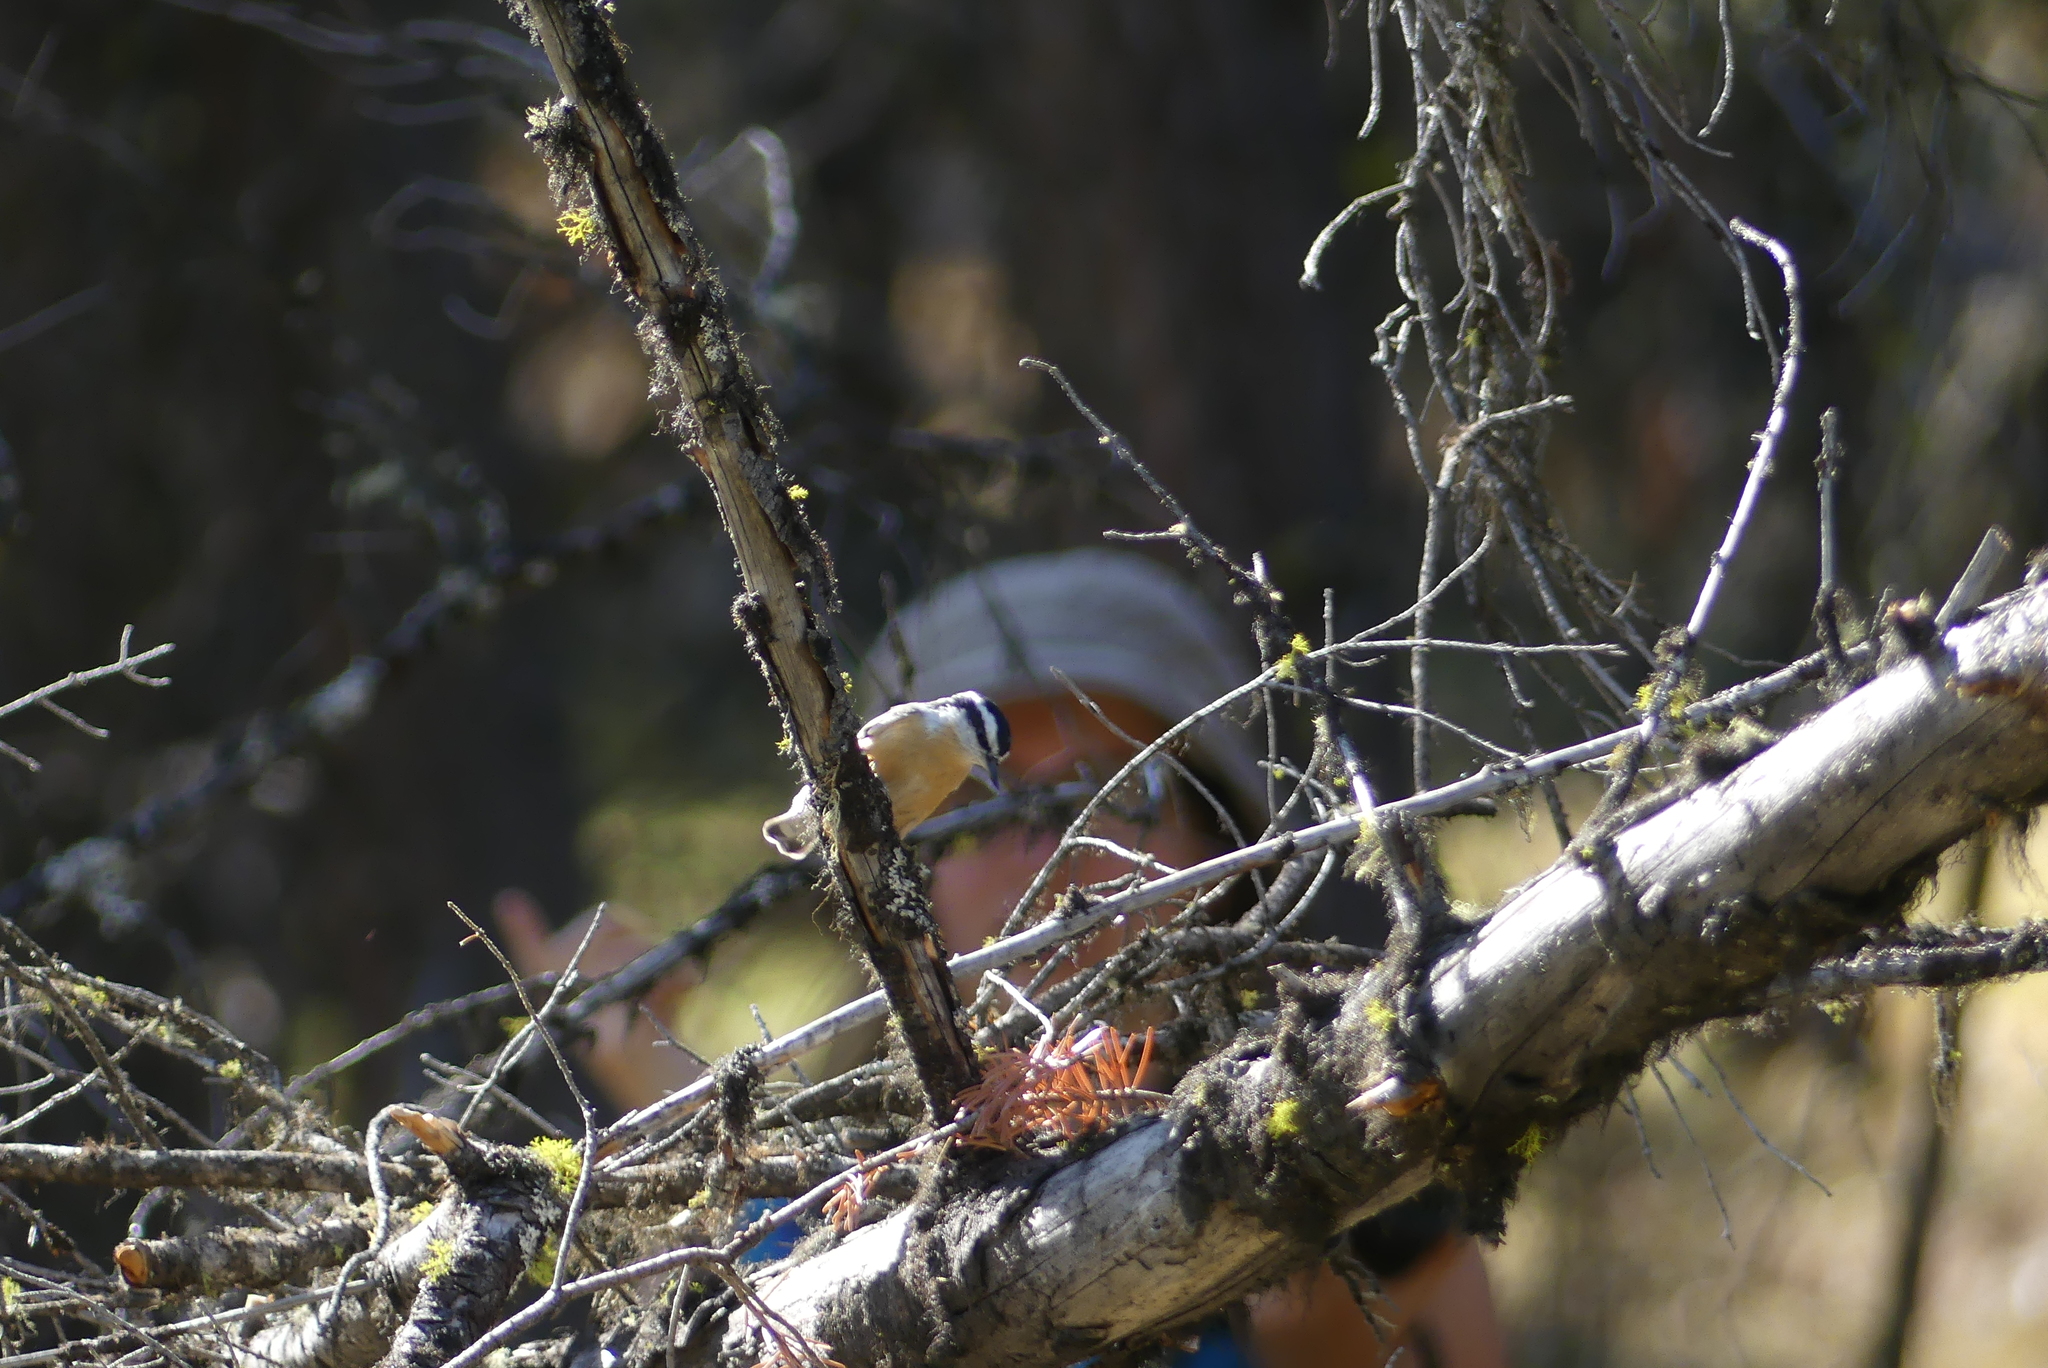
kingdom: Animalia
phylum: Chordata
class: Aves
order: Passeriformes
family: Sittidae
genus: Sitta
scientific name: Sitta canadensis
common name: Red-breasted nuthatch
